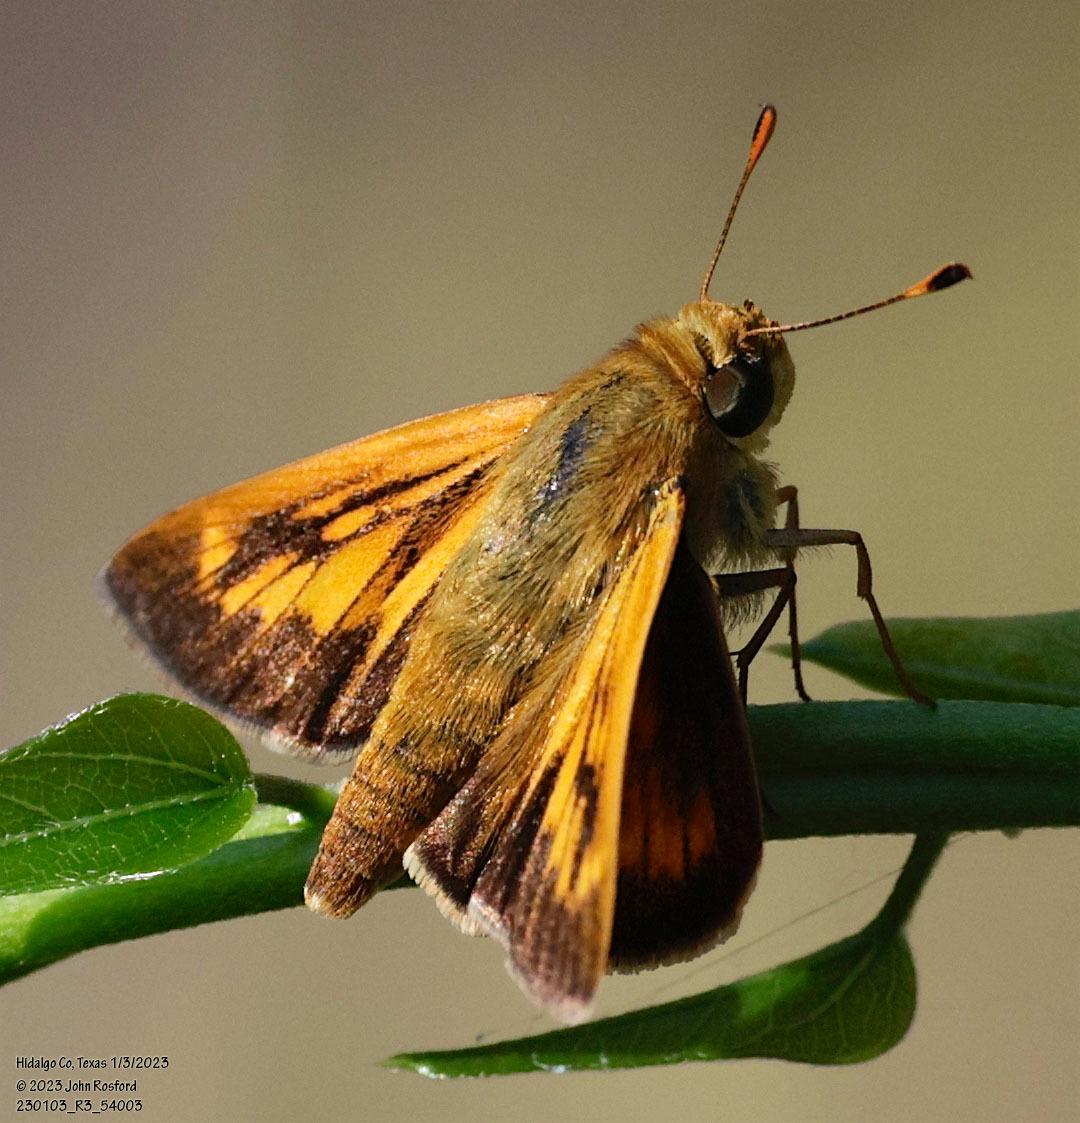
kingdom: Animalia
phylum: Arthropoda
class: Insecta
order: Lepidoptera
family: Hesperiidae
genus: Mellana
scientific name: Mellana eulogius
